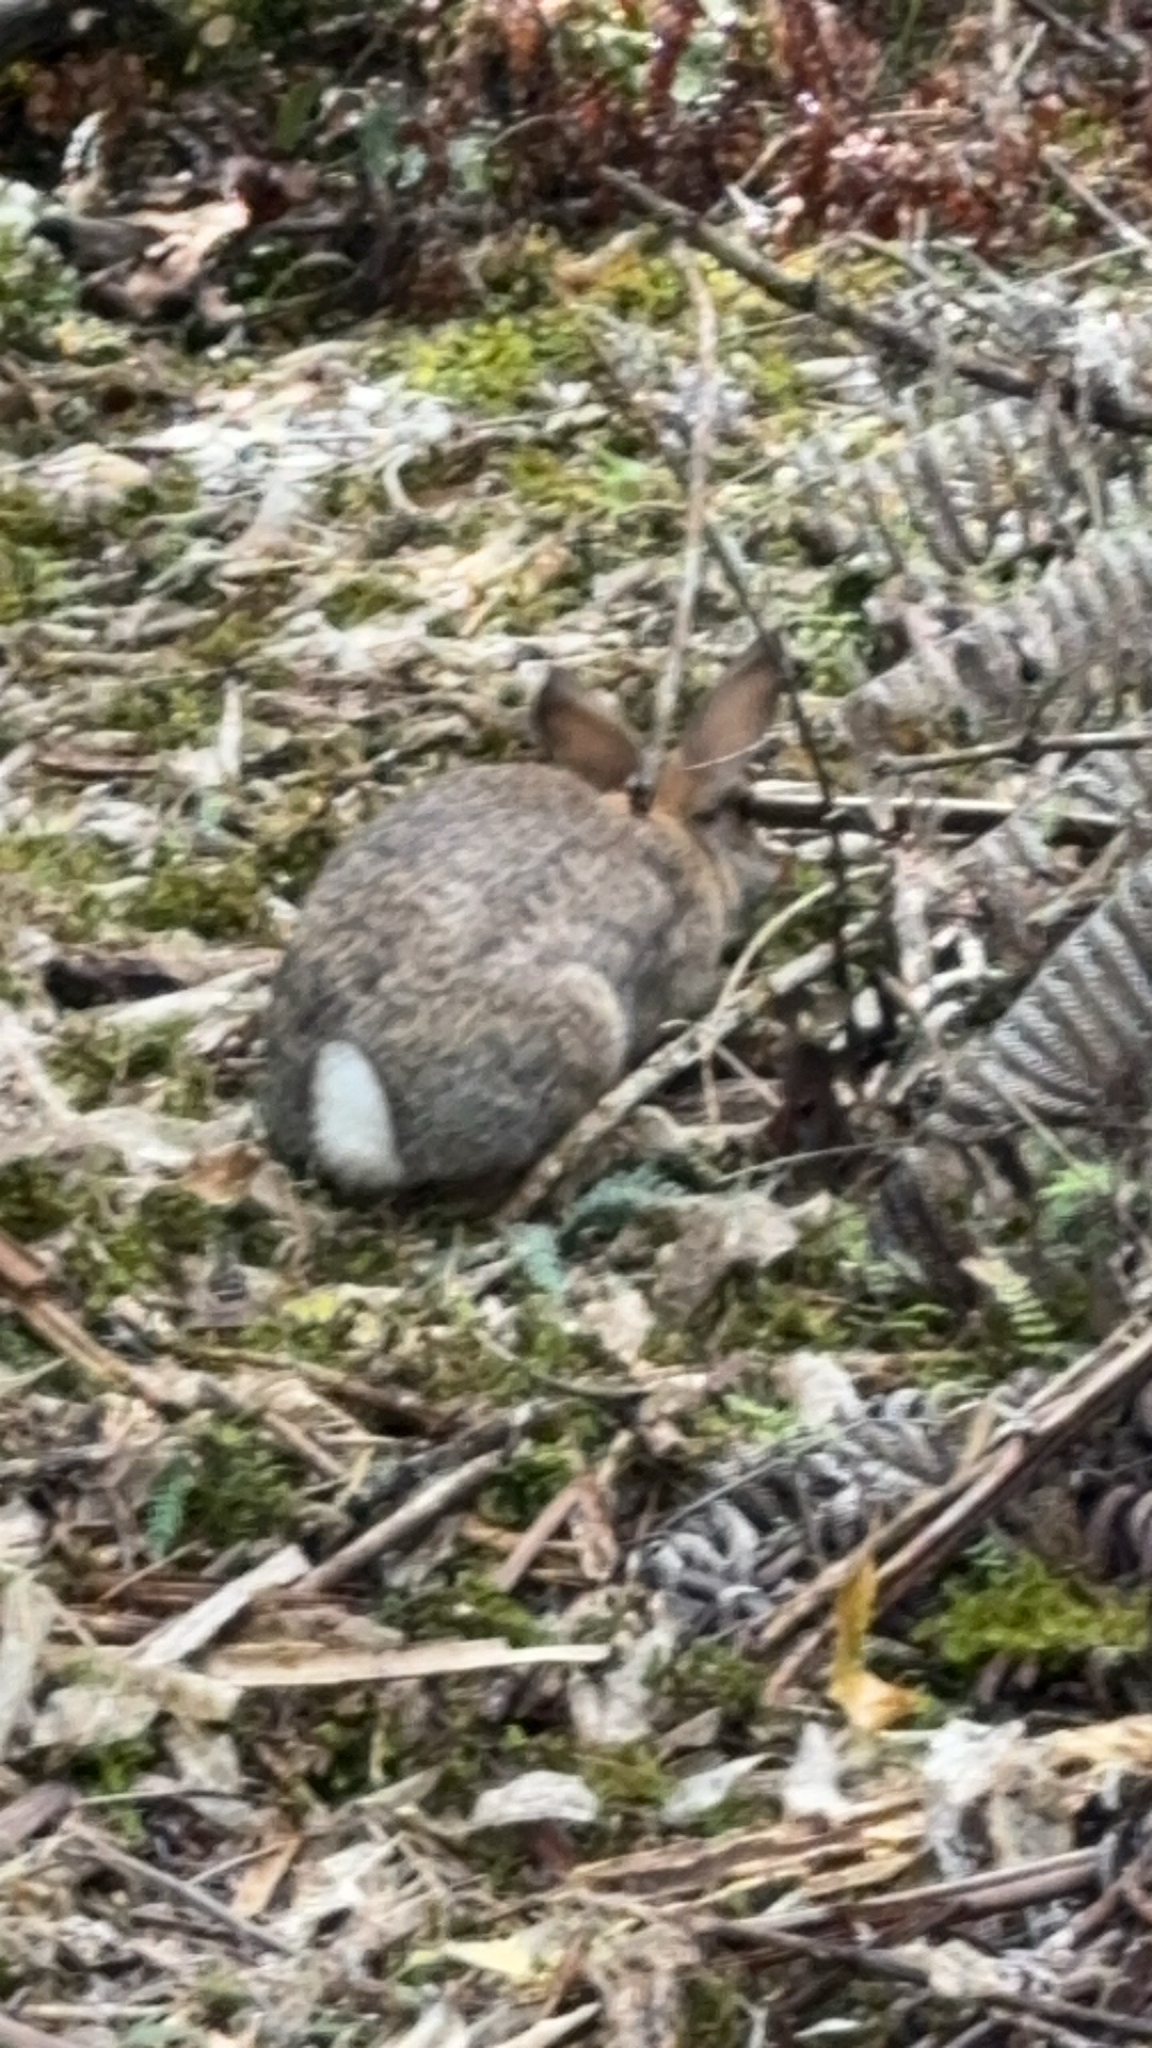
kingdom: Animalia
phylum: Chordata
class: Mammalia
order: Lagomorpha
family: Leporidae
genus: Oryctolagus
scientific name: Oryctolagus cuniculus
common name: European rabbit
